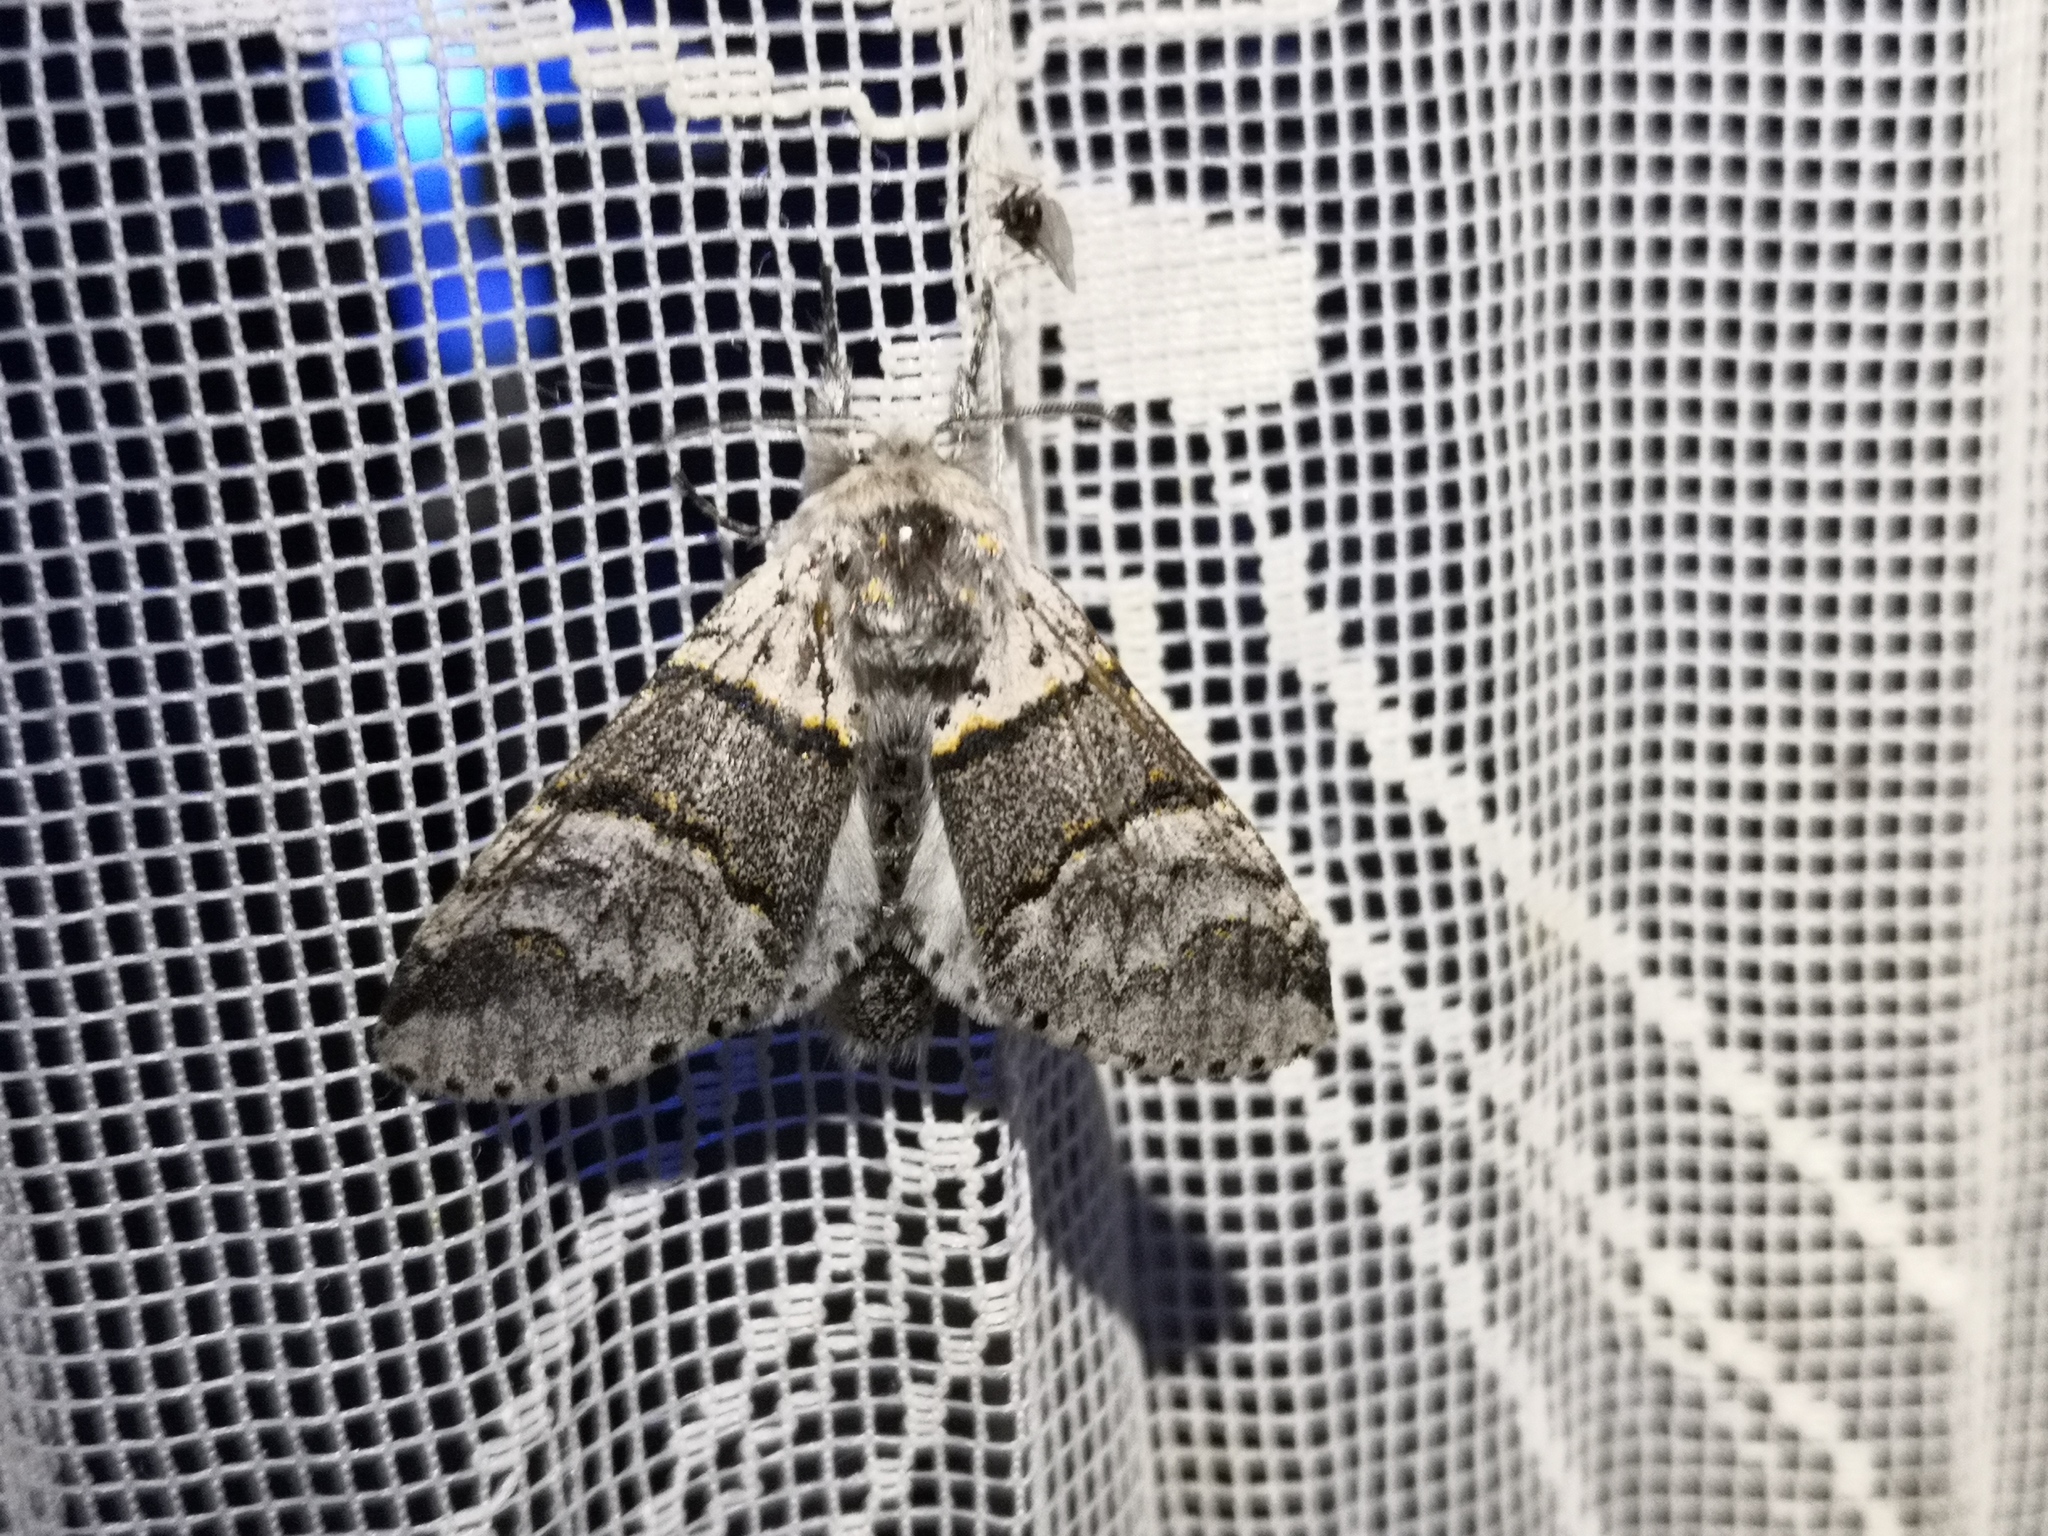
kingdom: Animalia
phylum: Arthropoda
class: Insecta
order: Lepidoptera
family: Notodontidae
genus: Furcula
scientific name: Furcula bifida
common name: Poplar kitten
